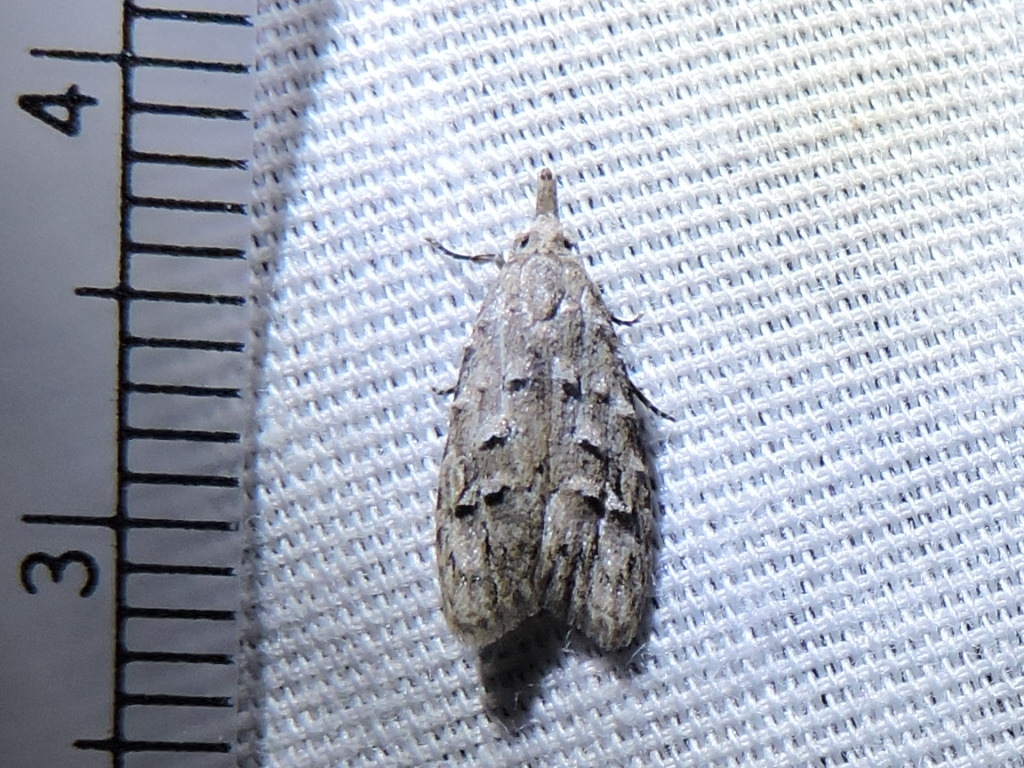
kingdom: Animalia
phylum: Arthropoda
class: Insecta
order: Lepidoptera
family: Carposinidae
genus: Carposina
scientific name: Carposina ottawana
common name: American peach fruit moth
